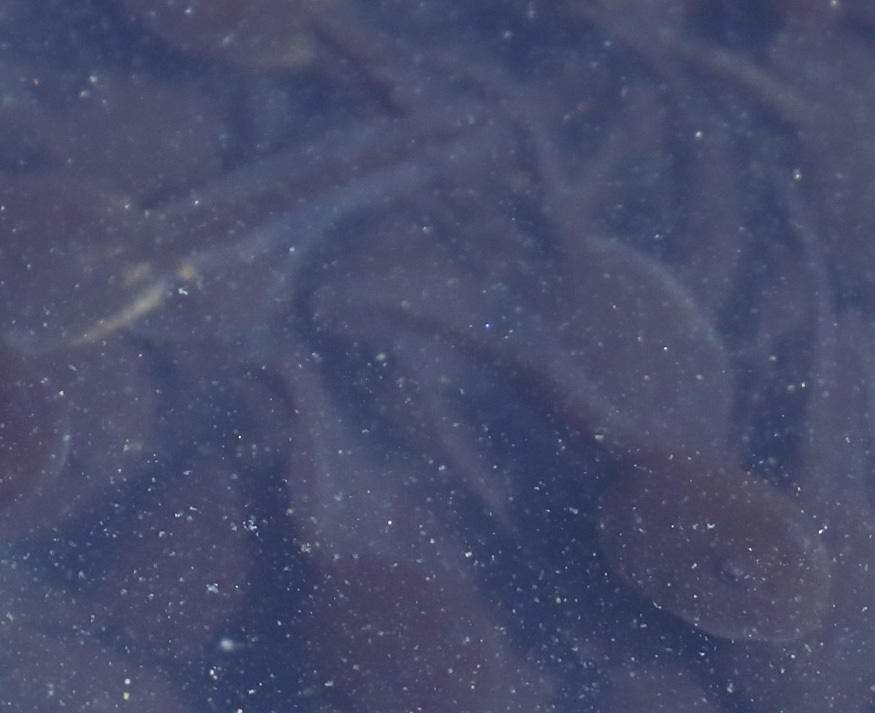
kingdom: Animalia
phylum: Chordata
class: Amphibia
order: Anura
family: Bufonidae
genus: Anaxyrus
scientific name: Anaxyrus boreas
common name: Western toad
